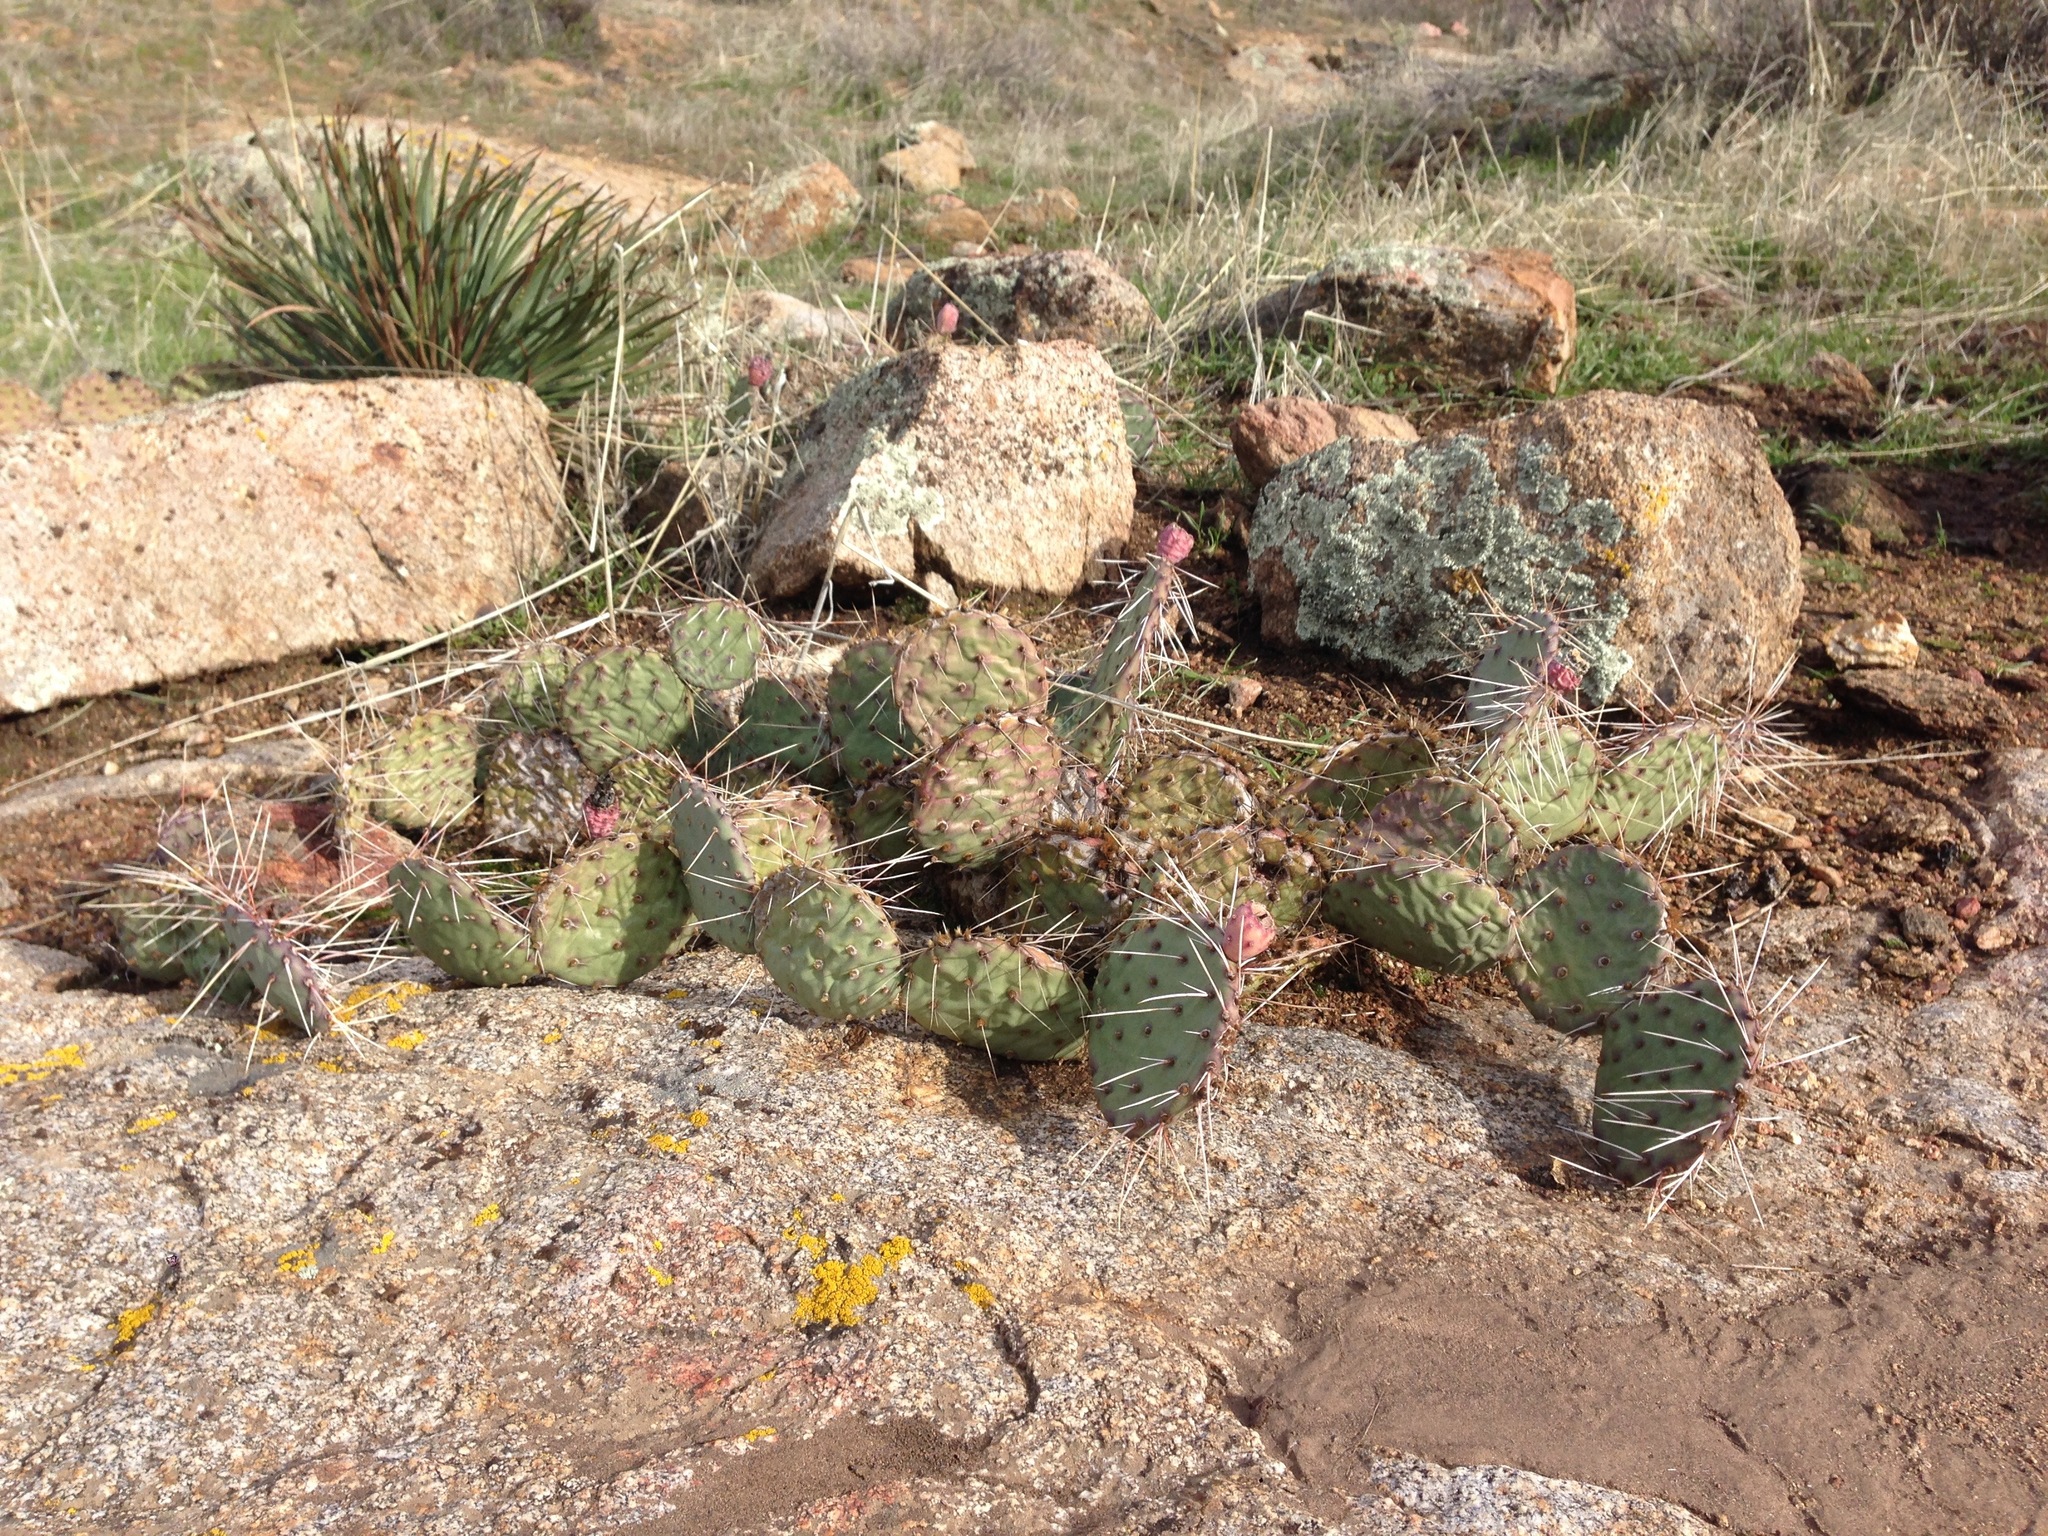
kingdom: Plantae
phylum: Tracheophyta
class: Magnoliopsida
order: Caryophyllales
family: Cactaceae
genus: Opuntia
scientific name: Opuntia phaeacantha
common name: New mexico prickly-pear
